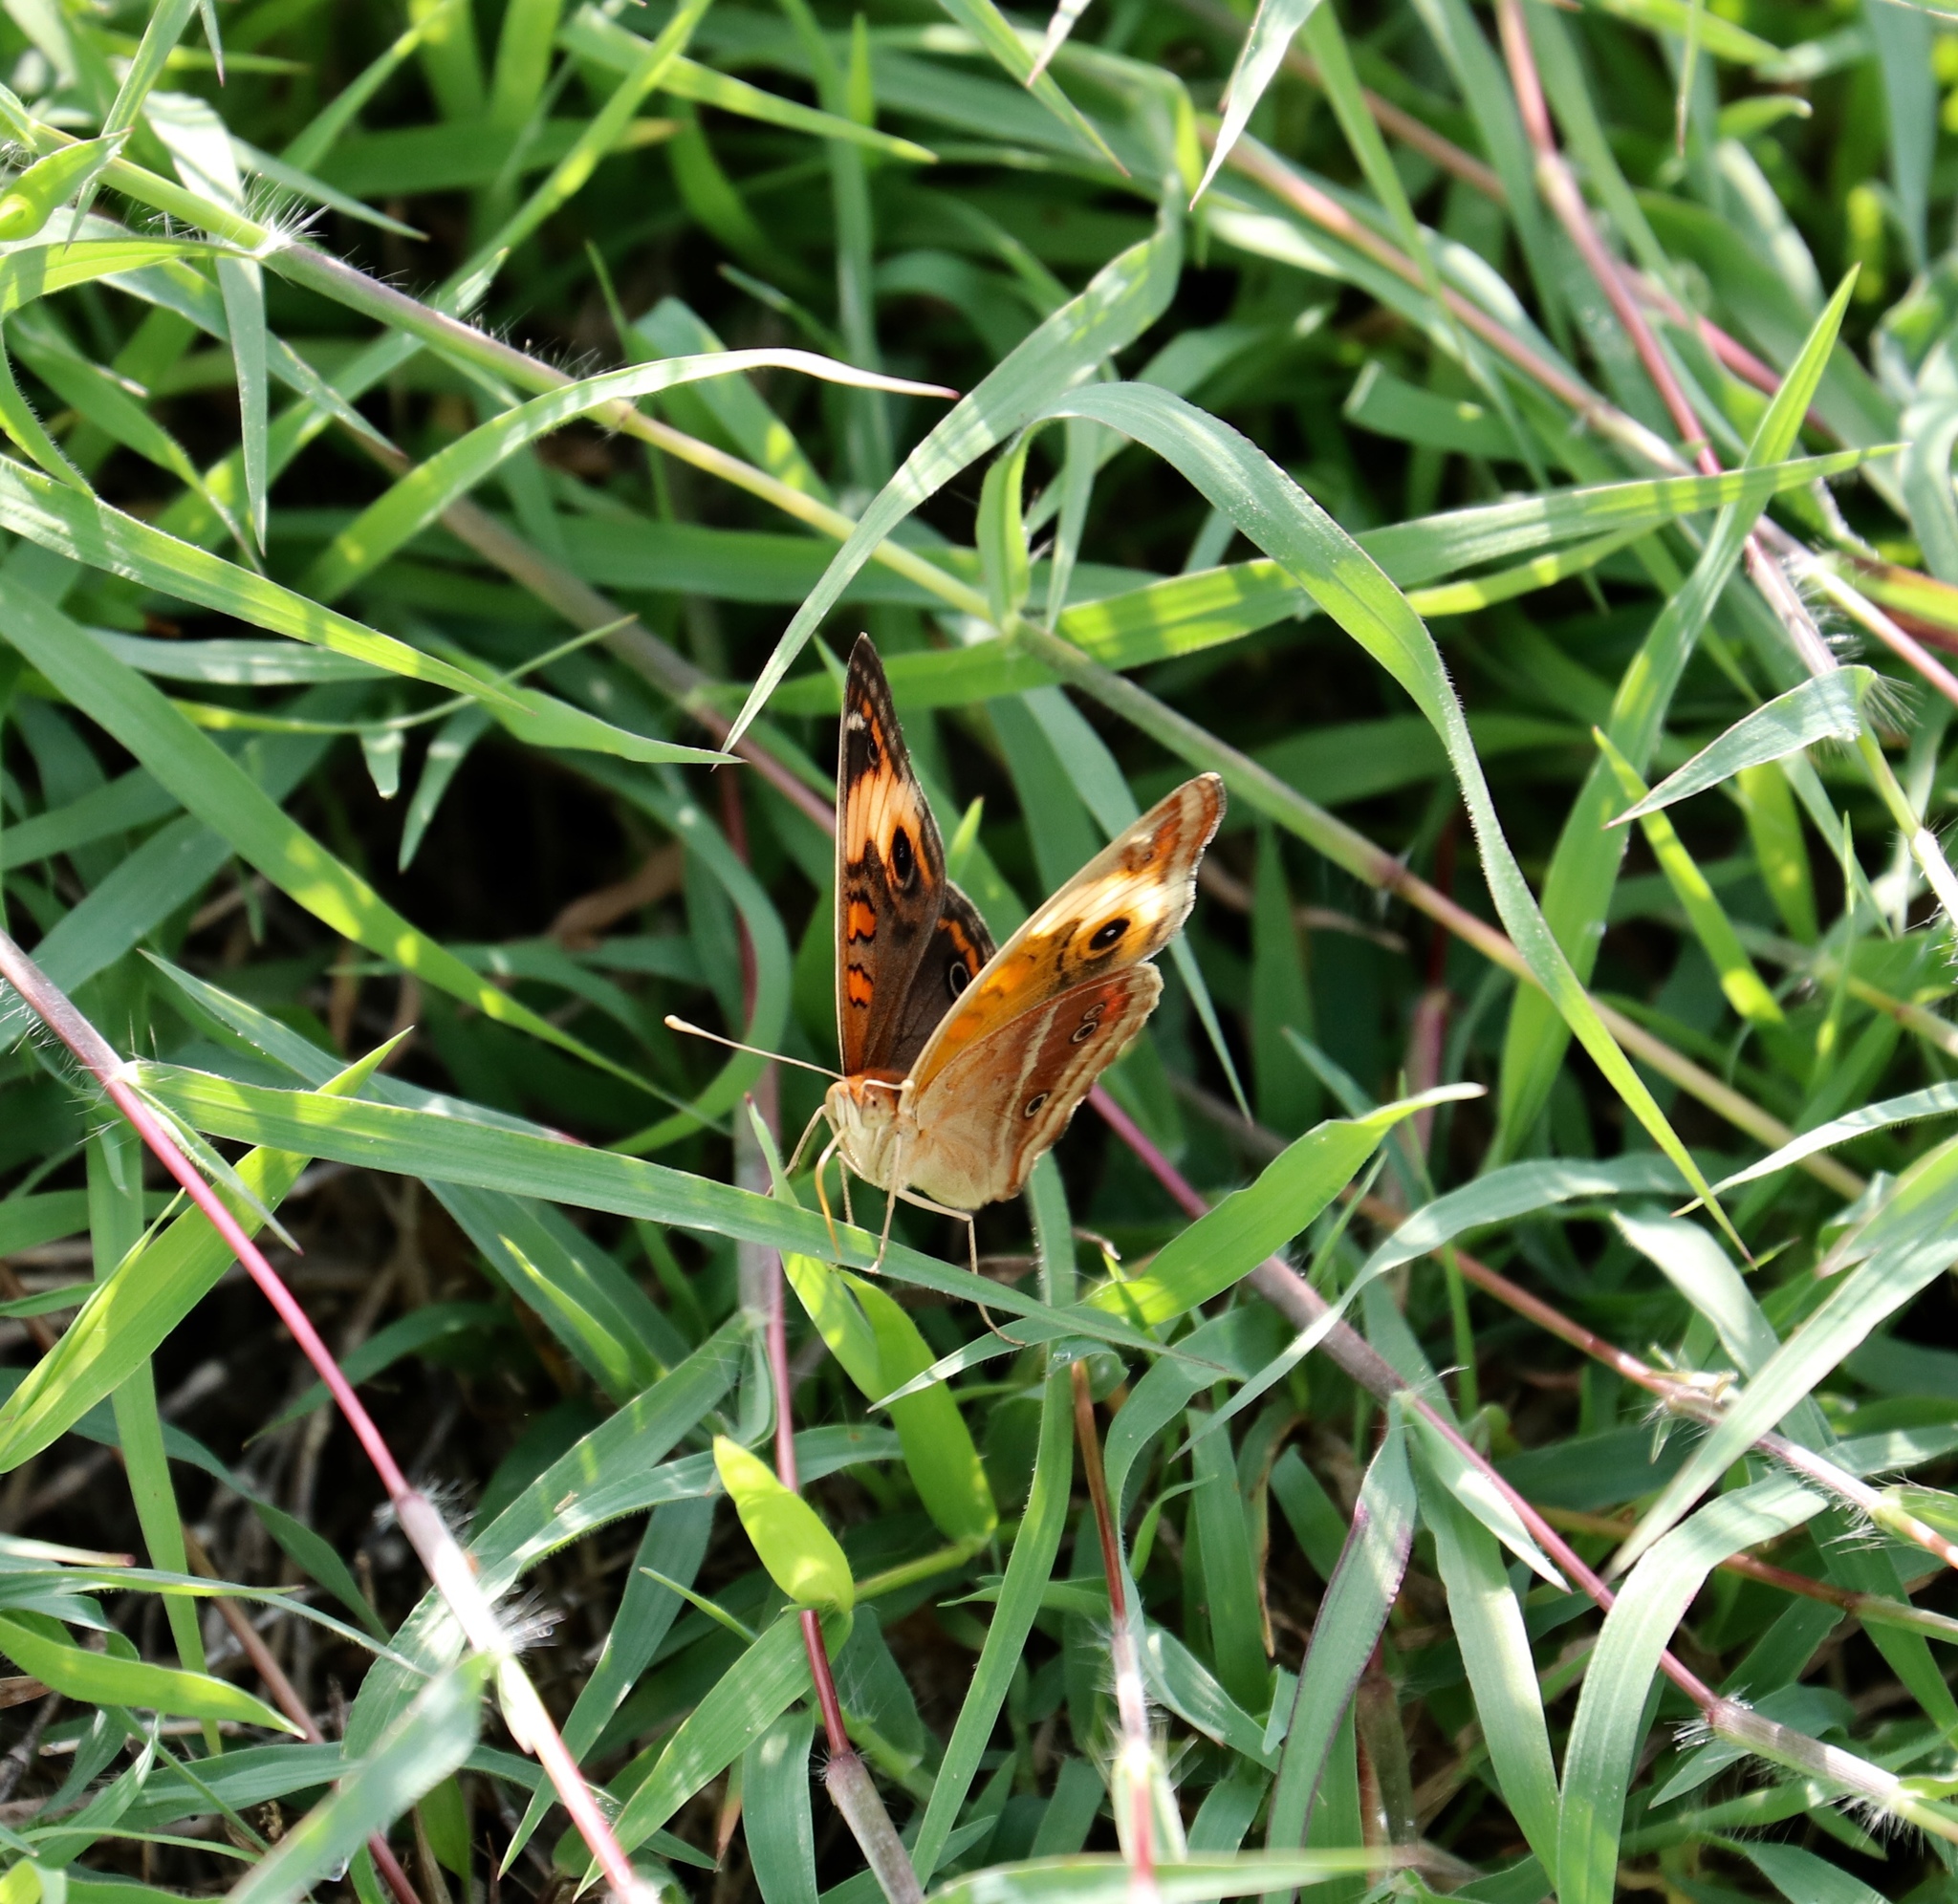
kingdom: Animalia
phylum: Arthropoda
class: Insecta
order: Lepidoptera
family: Nymphalidae
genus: Junonia
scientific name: Junonia lavinia
